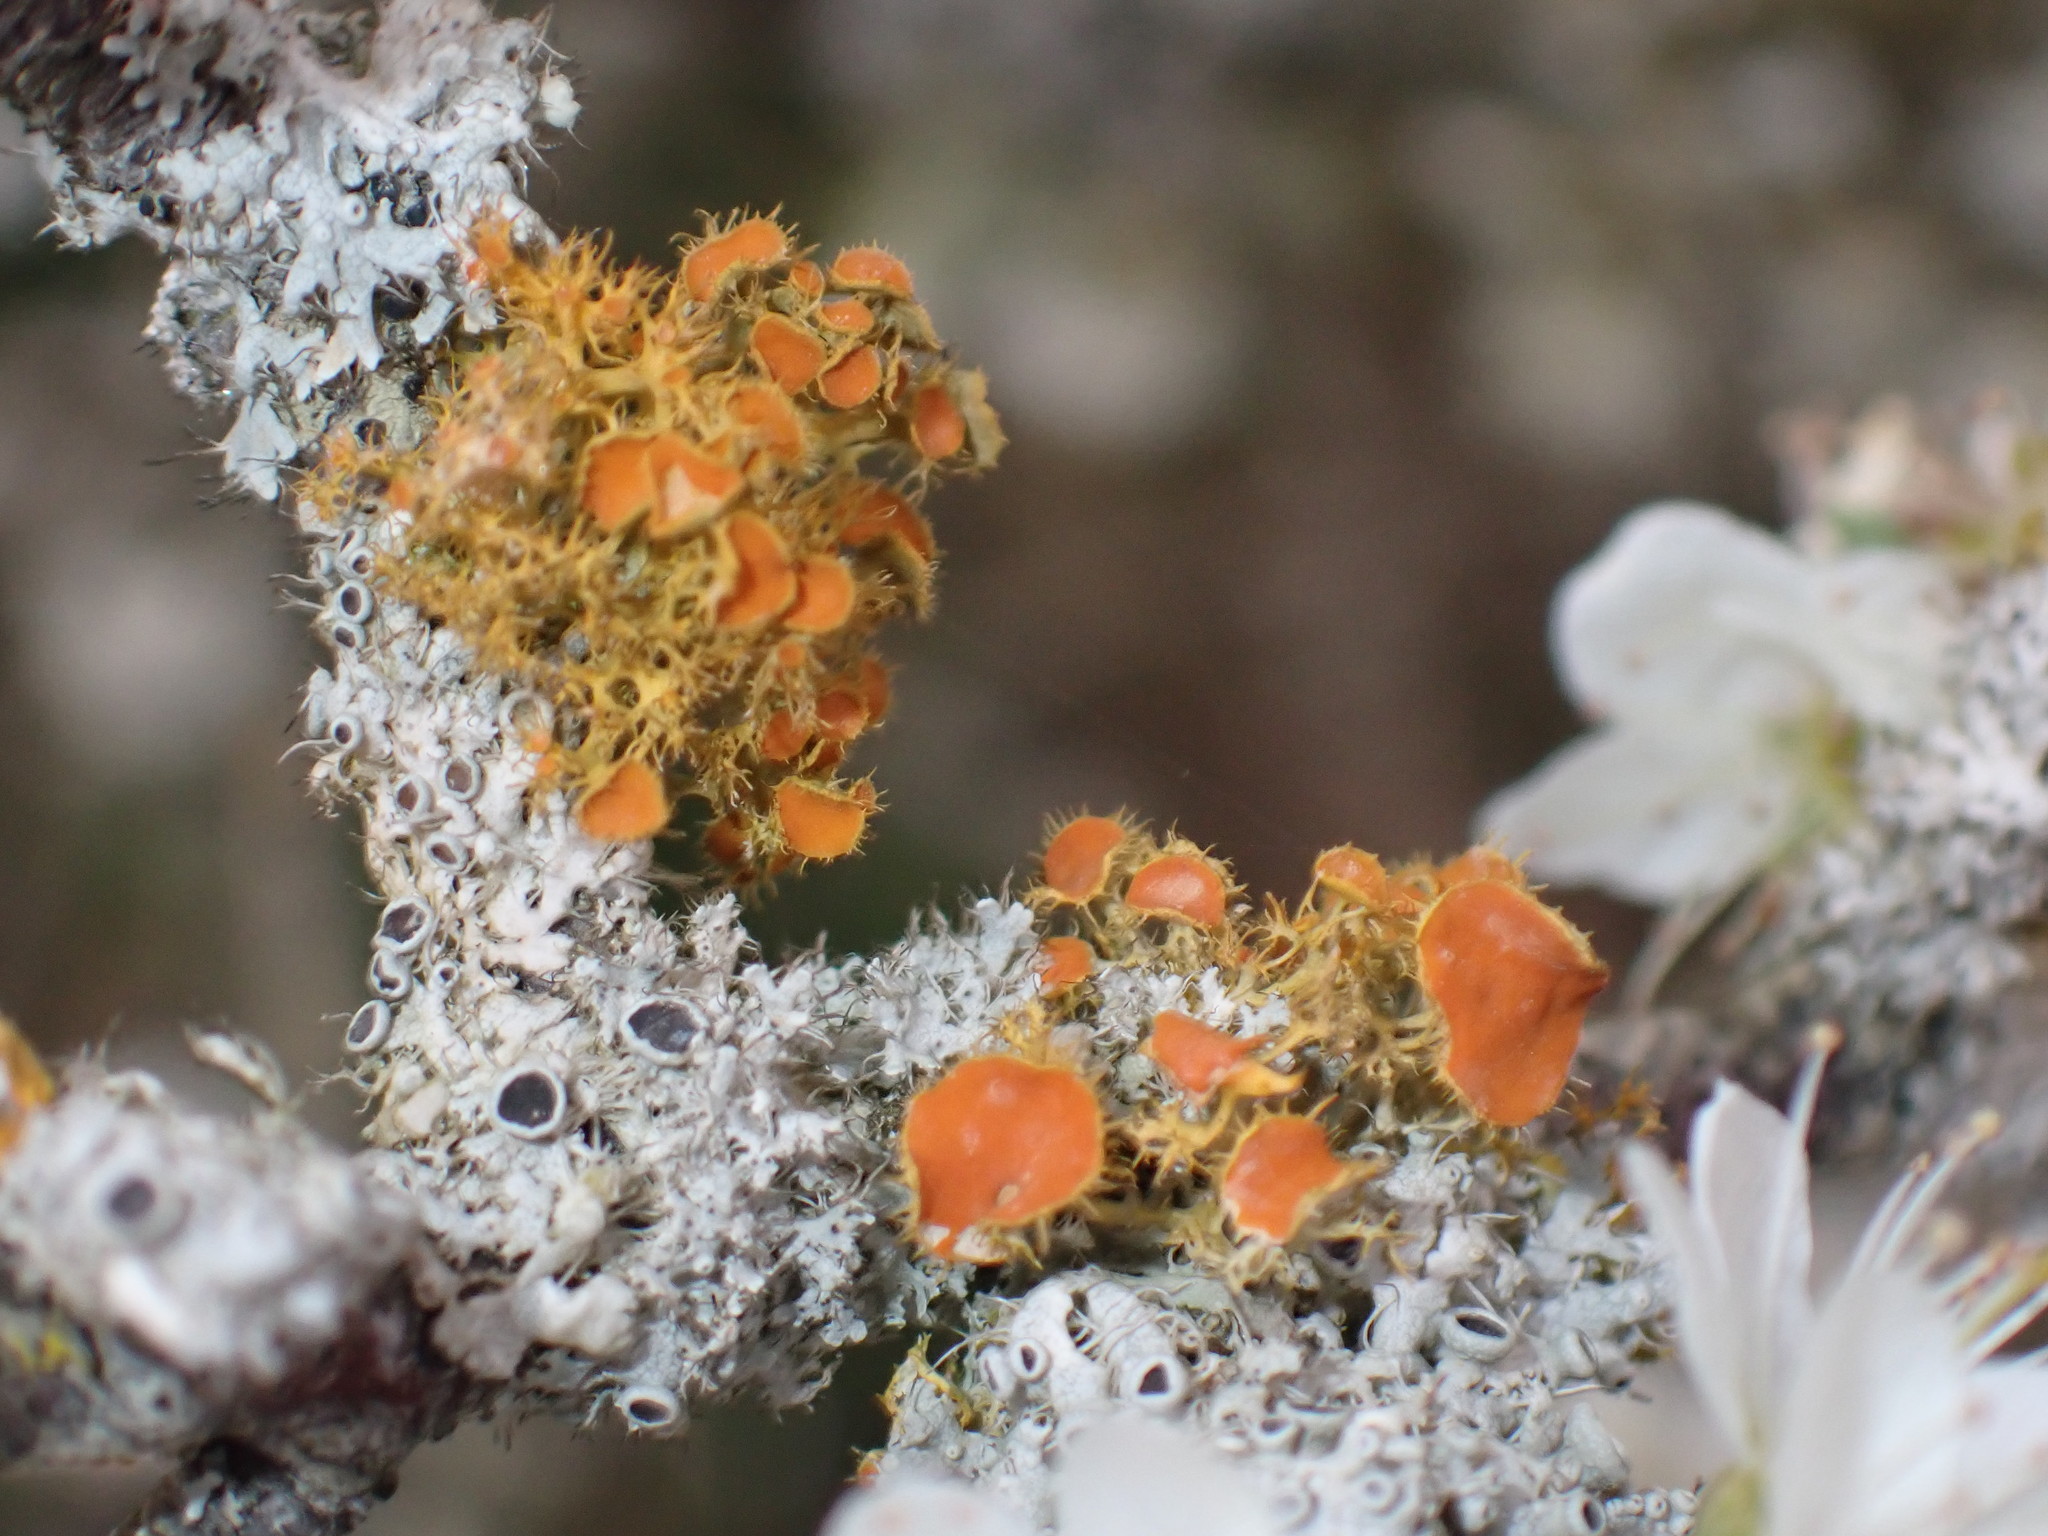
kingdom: Fungi
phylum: Ascomycota
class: Lecanoromycetes
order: Teloschistales
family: Teloschistaceae
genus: Niorma
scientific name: Niorma chrysophthalma
